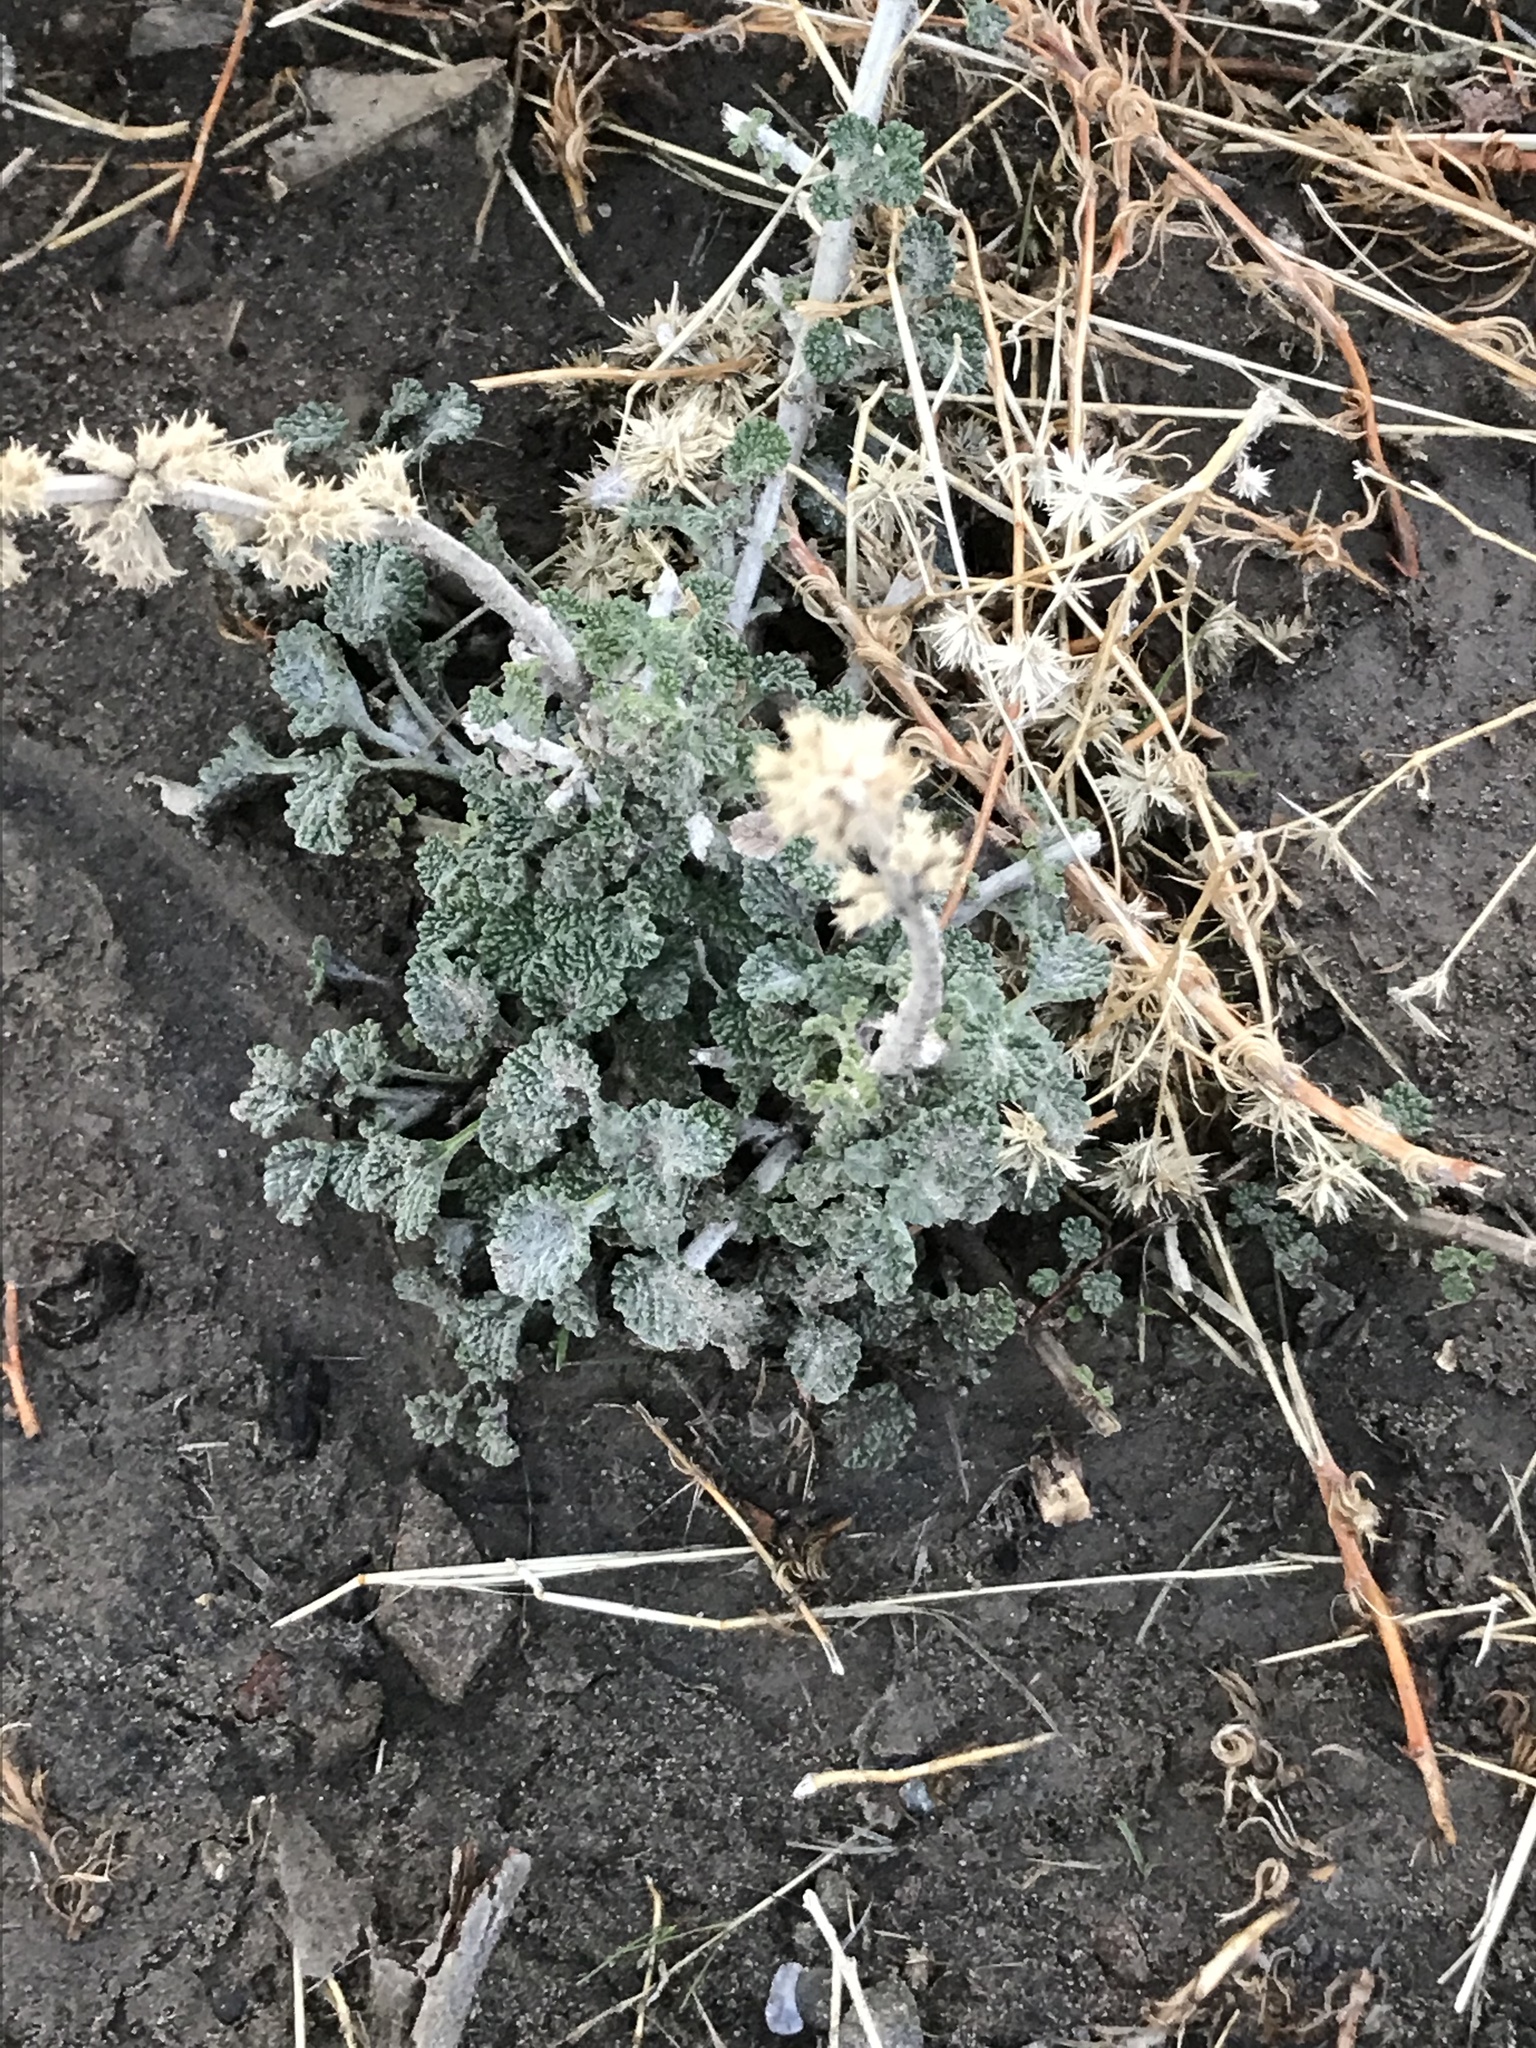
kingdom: Plantae
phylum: Tracheophyta
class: Magnoliopsida
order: Lamiales
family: Lamiaceae
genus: Marrubium
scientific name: Marrubium vulgare
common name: Horehound
